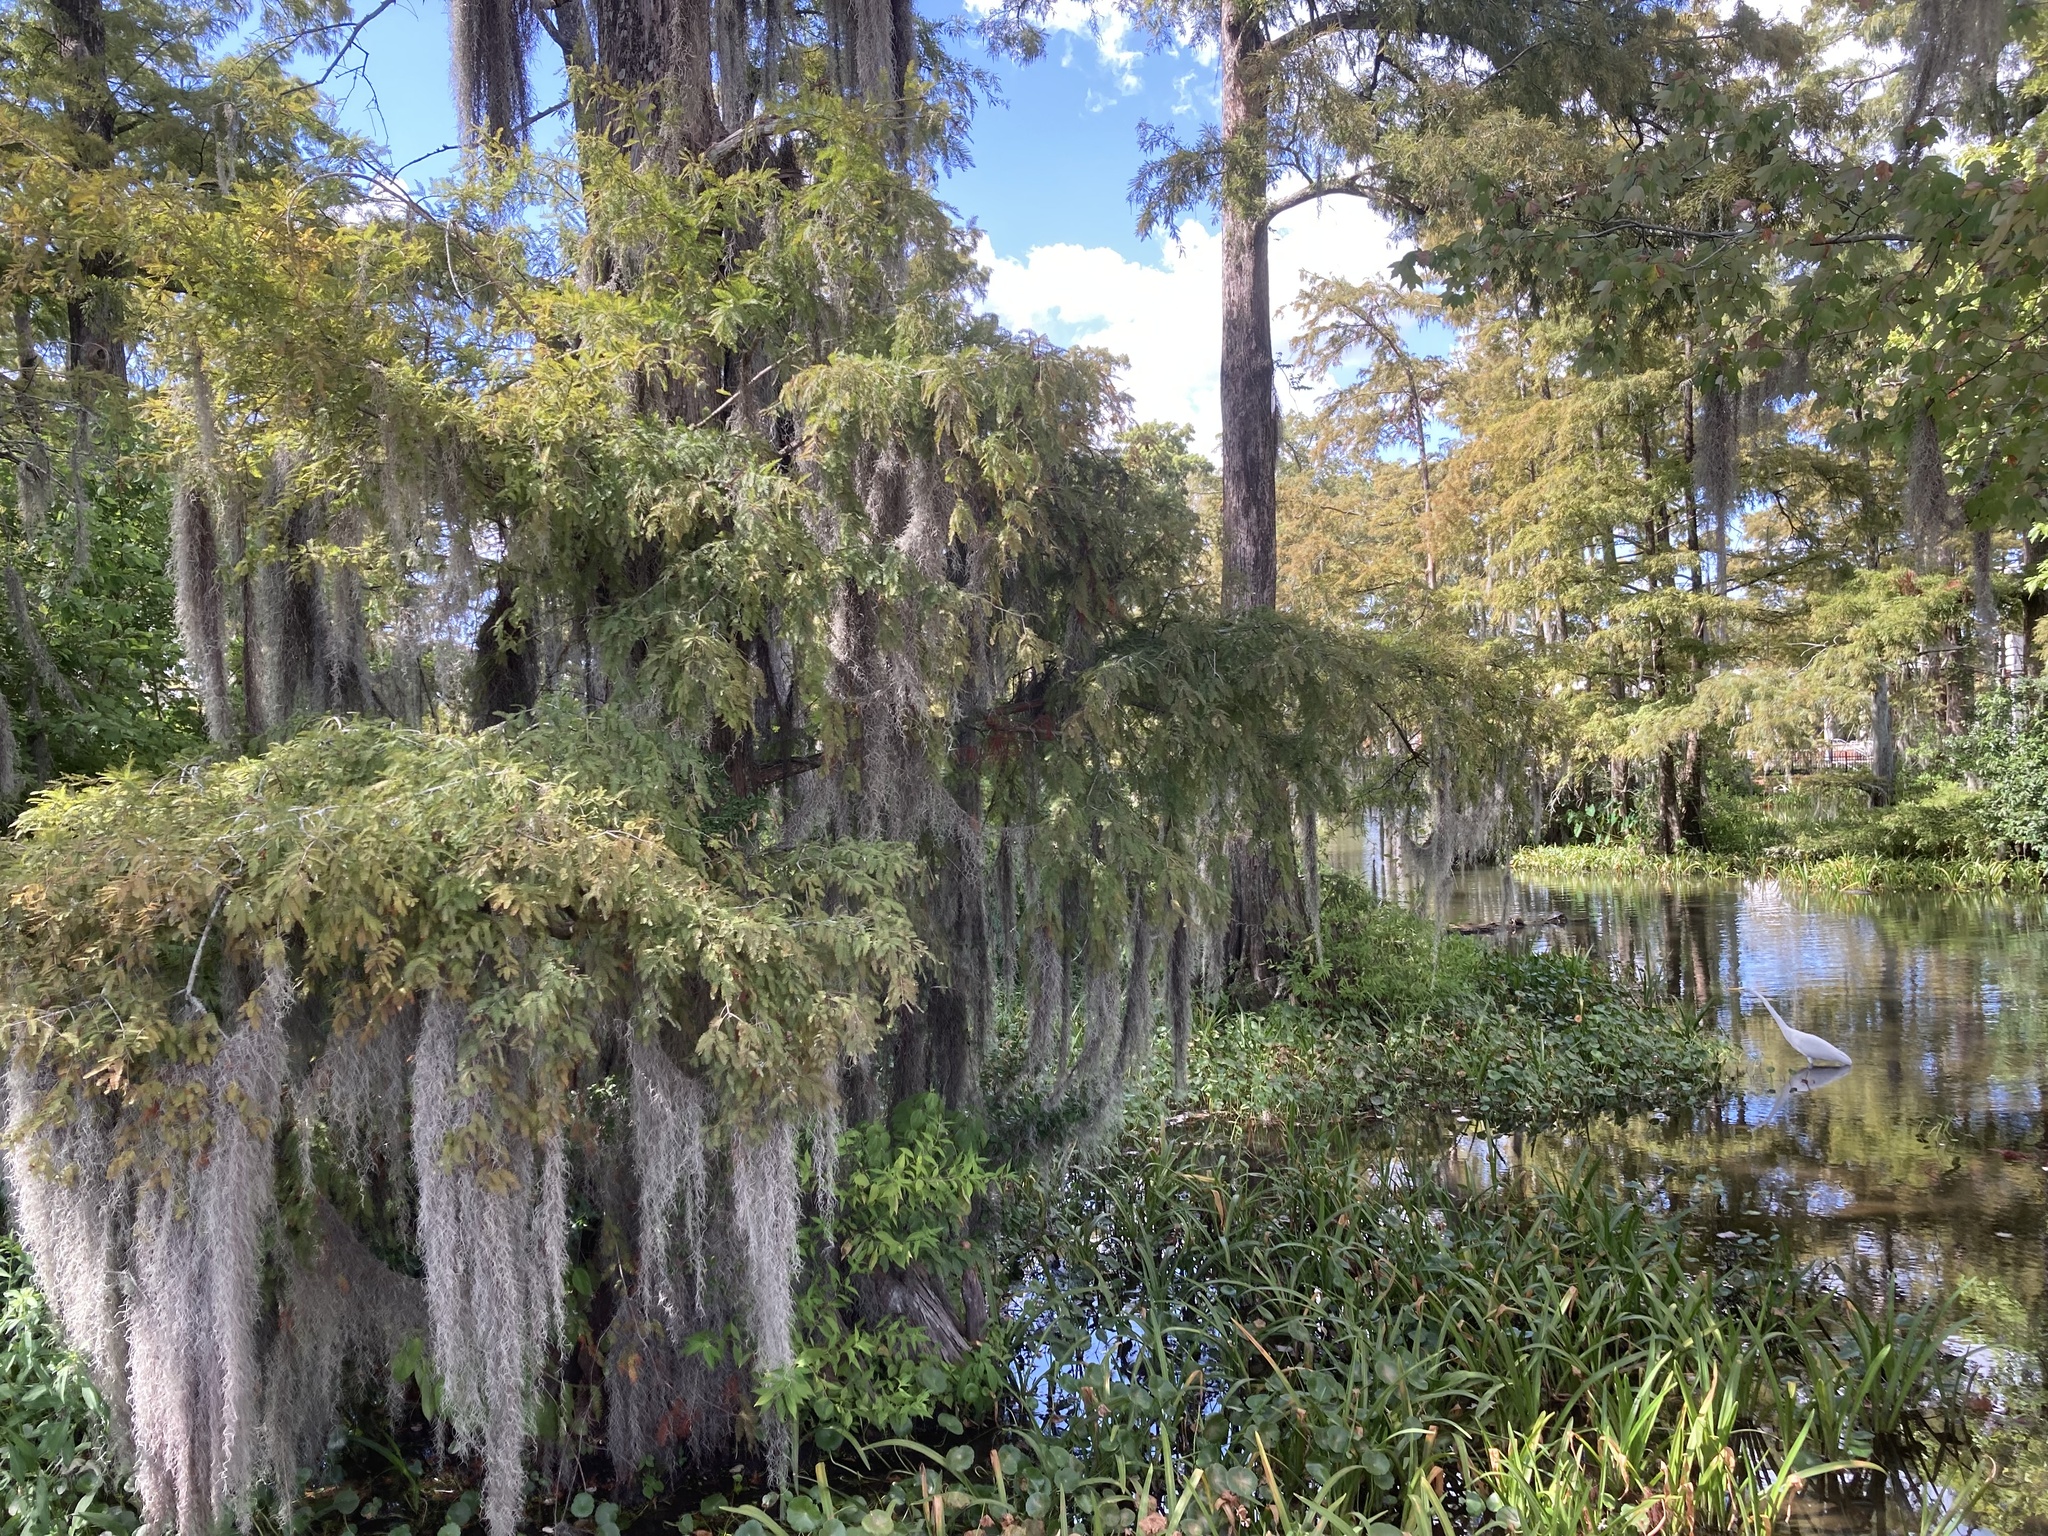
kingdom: Animalia
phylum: Chordata
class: Aves
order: Pelecaniformes
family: Ardeidae
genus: Ardea
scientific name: Ardea alba
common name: Great egret
